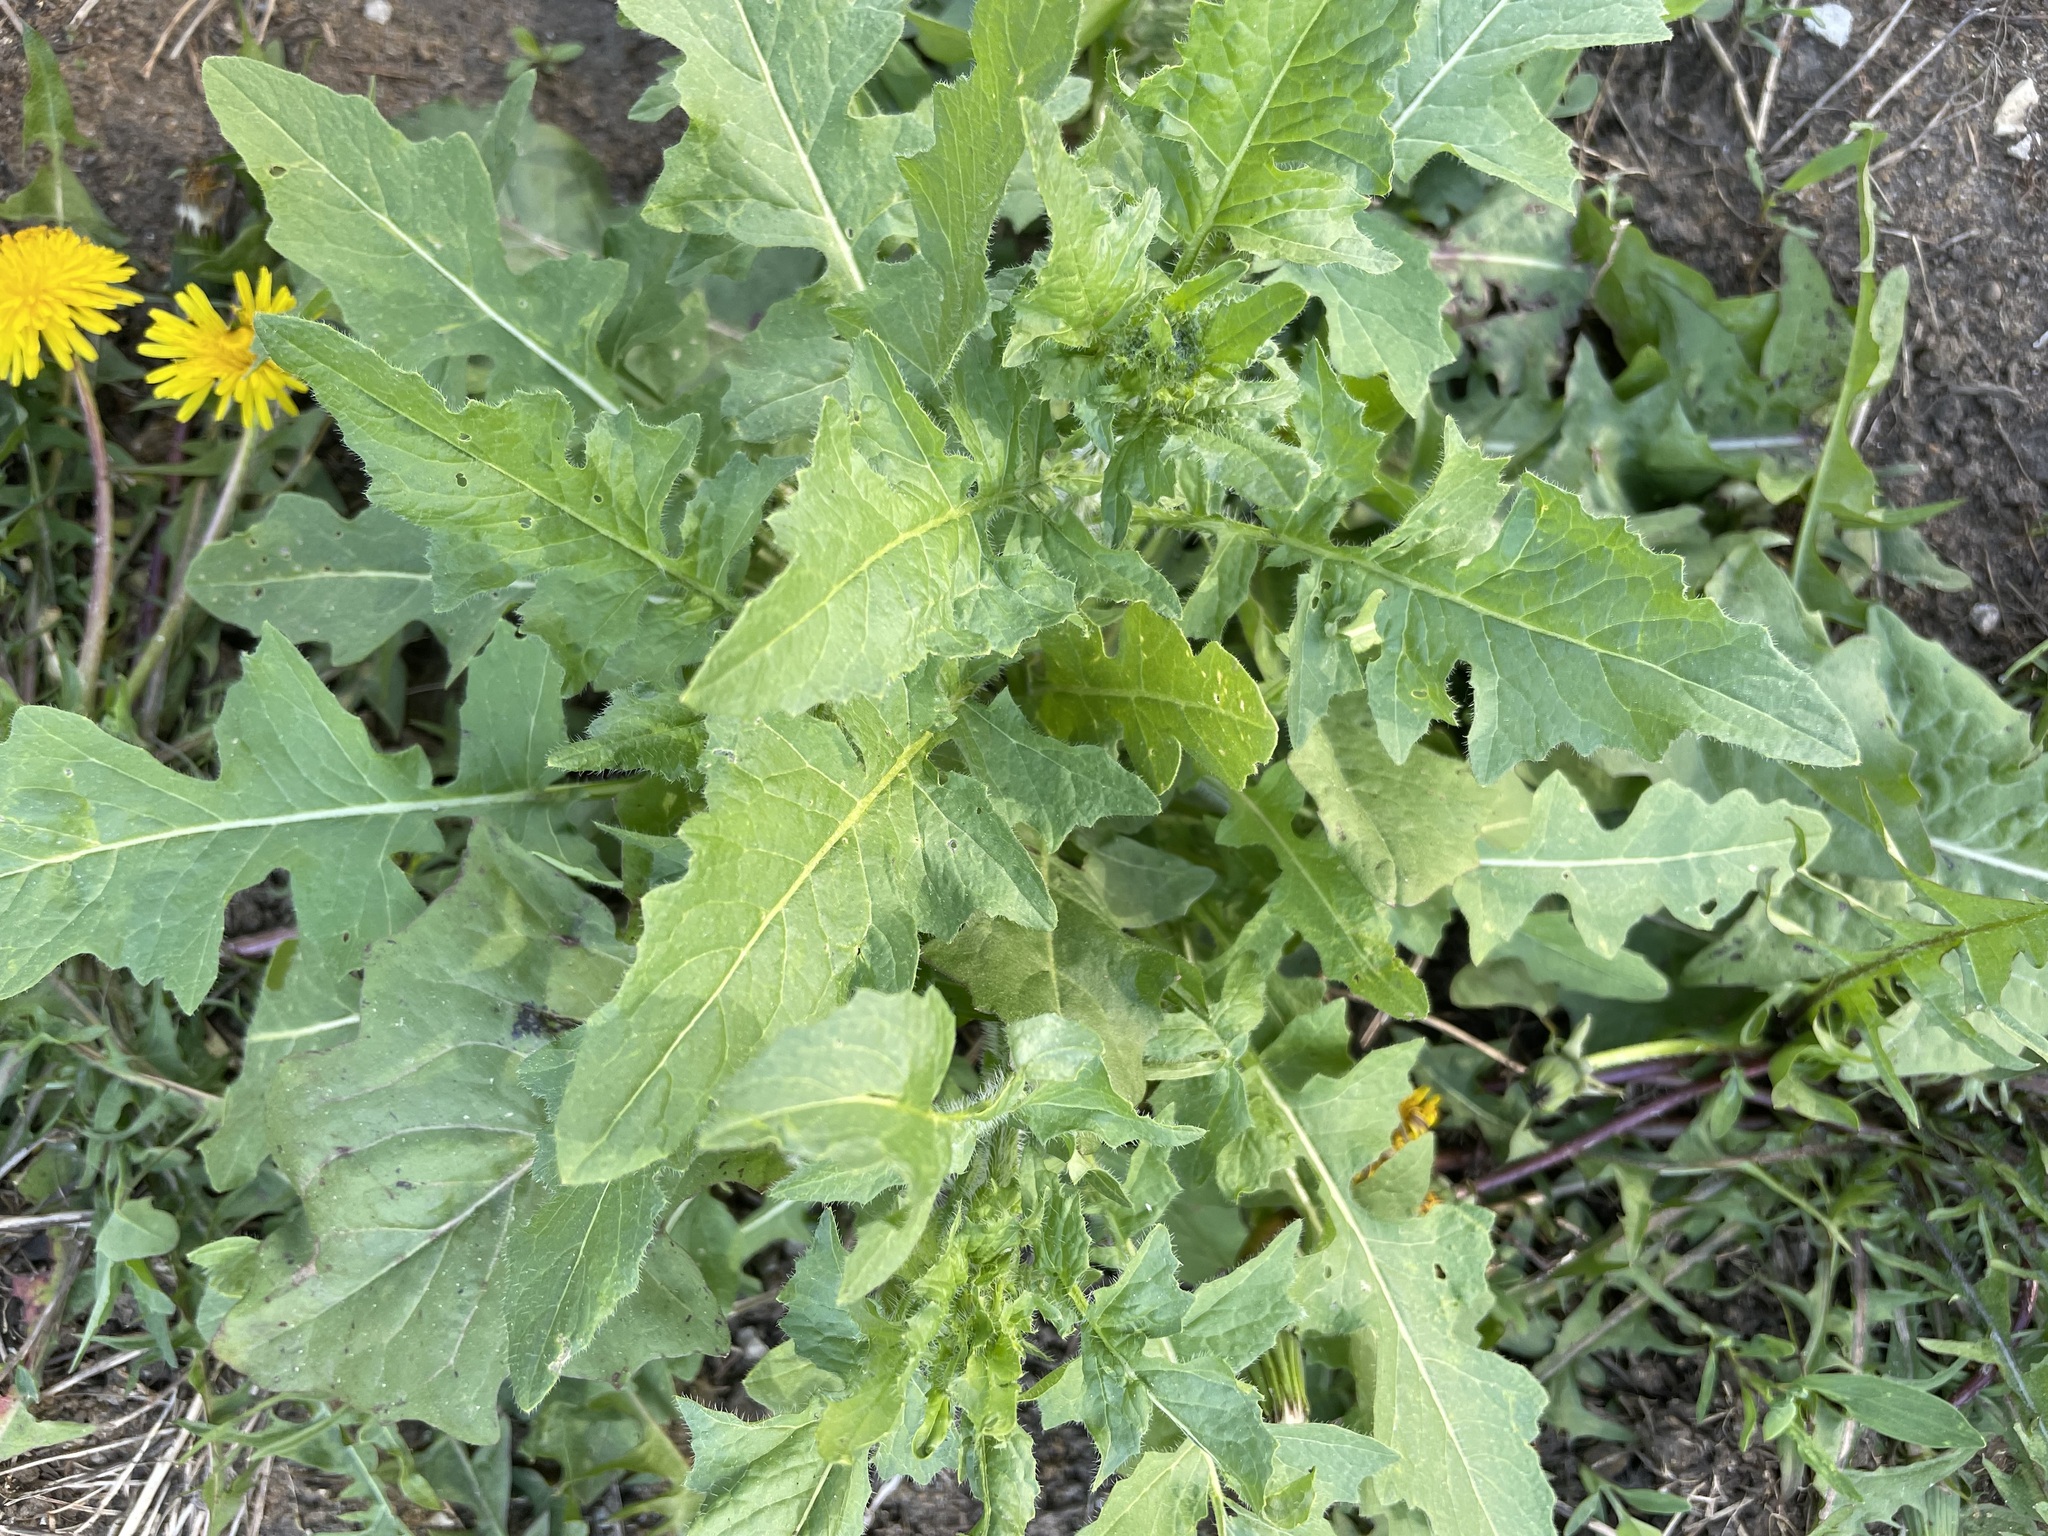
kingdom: Plantae
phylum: Tracheophyta
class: Magnoliopsida
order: Brassicales
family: Brassicaceae
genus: Sisymbrium
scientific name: Sisymbrium loeselii
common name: False london-rocket
